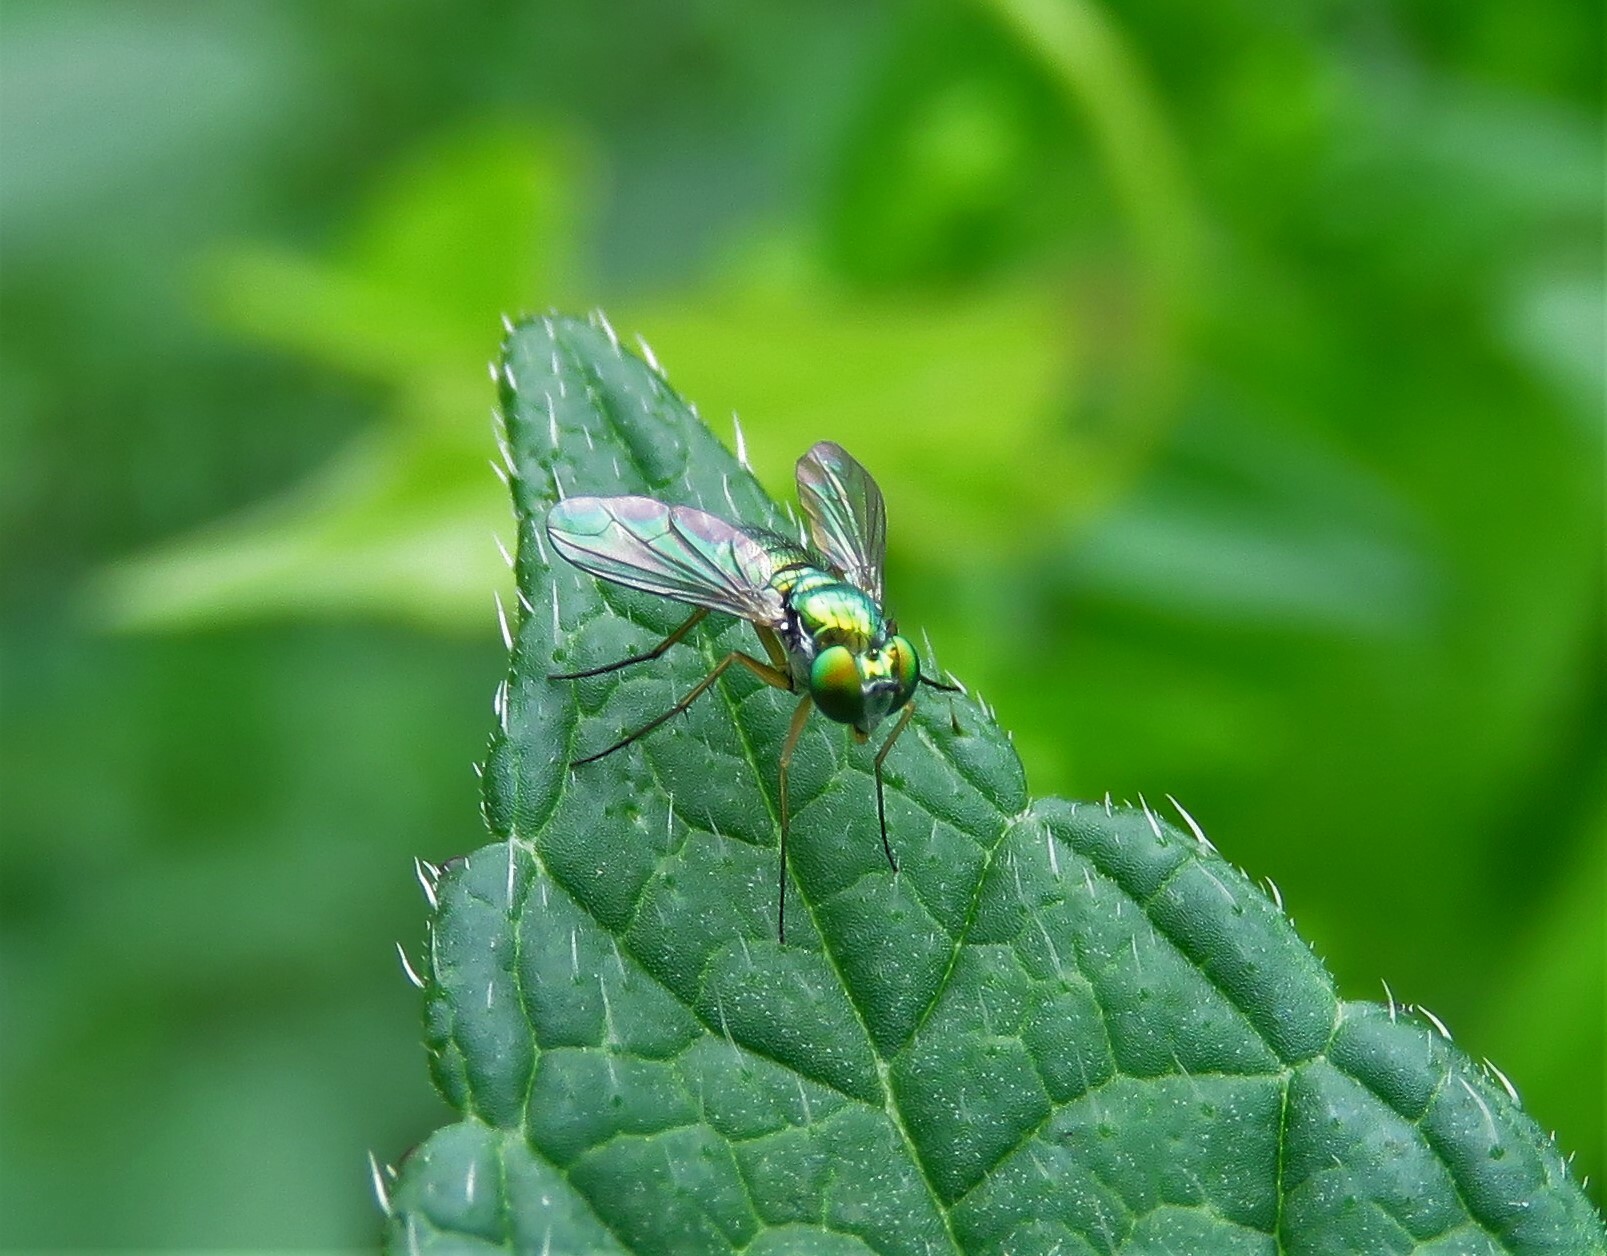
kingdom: Animalia
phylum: Arthropoda
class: Insecta
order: Diptera
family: Dolichopodidae
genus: Condylostylus
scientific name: Condylostylus
